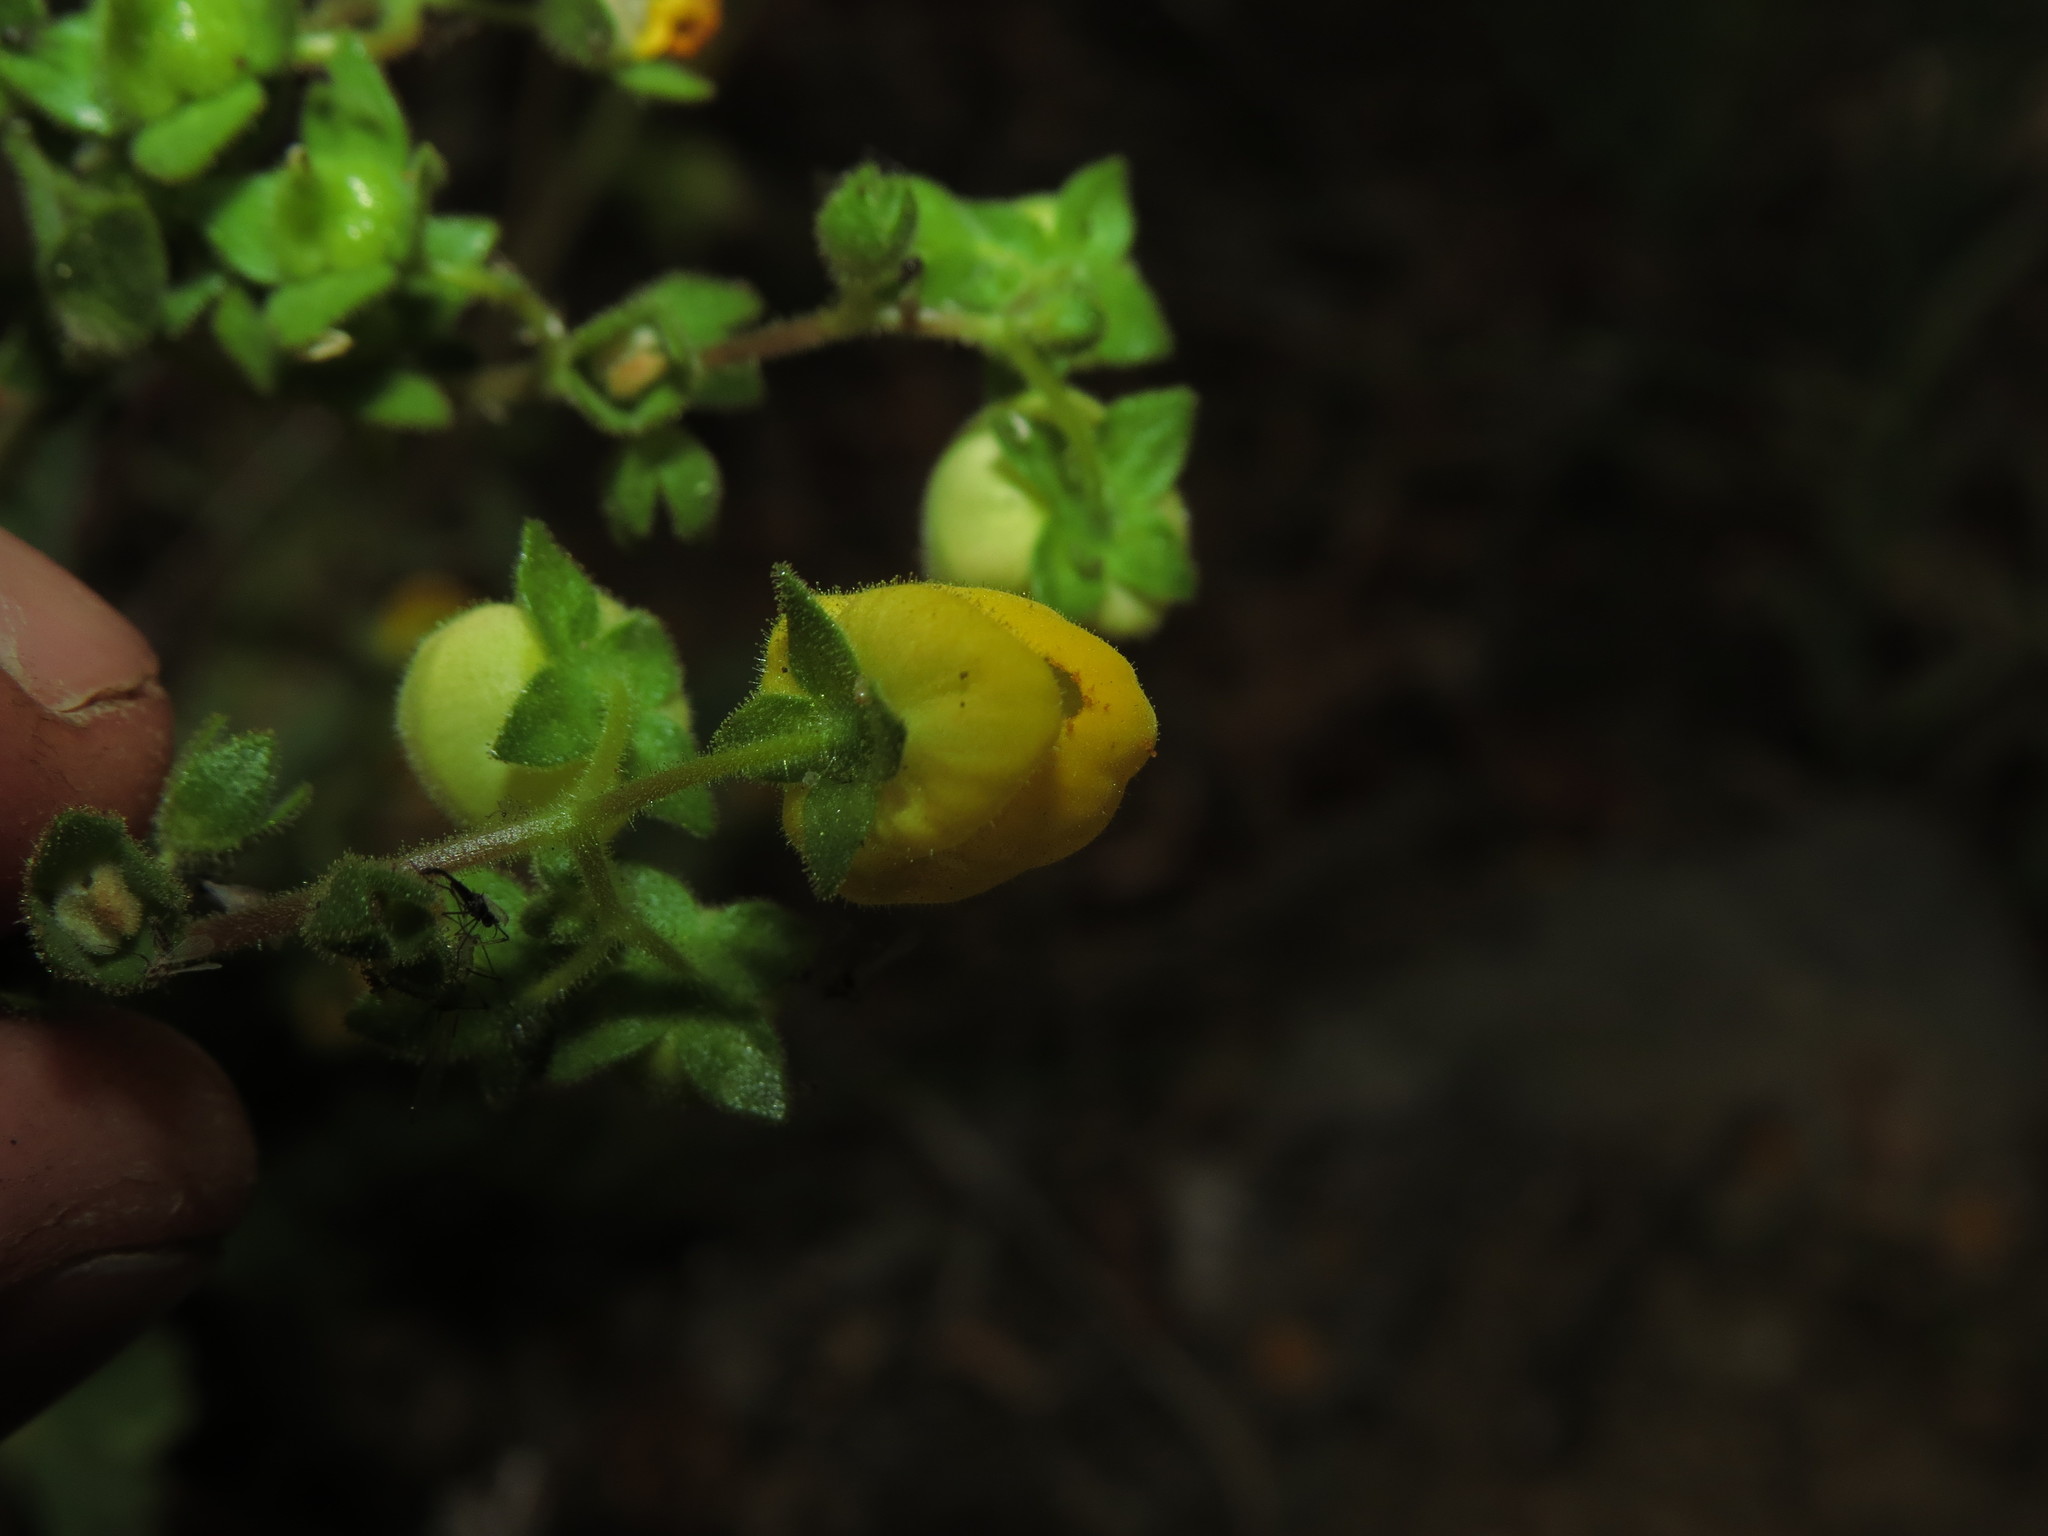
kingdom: Plantae
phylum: Tracheophyta
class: Magnoliopsida
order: Lamiales
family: Calceolariaceae
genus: Calceolaria
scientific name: Calceolaria glandulosa
